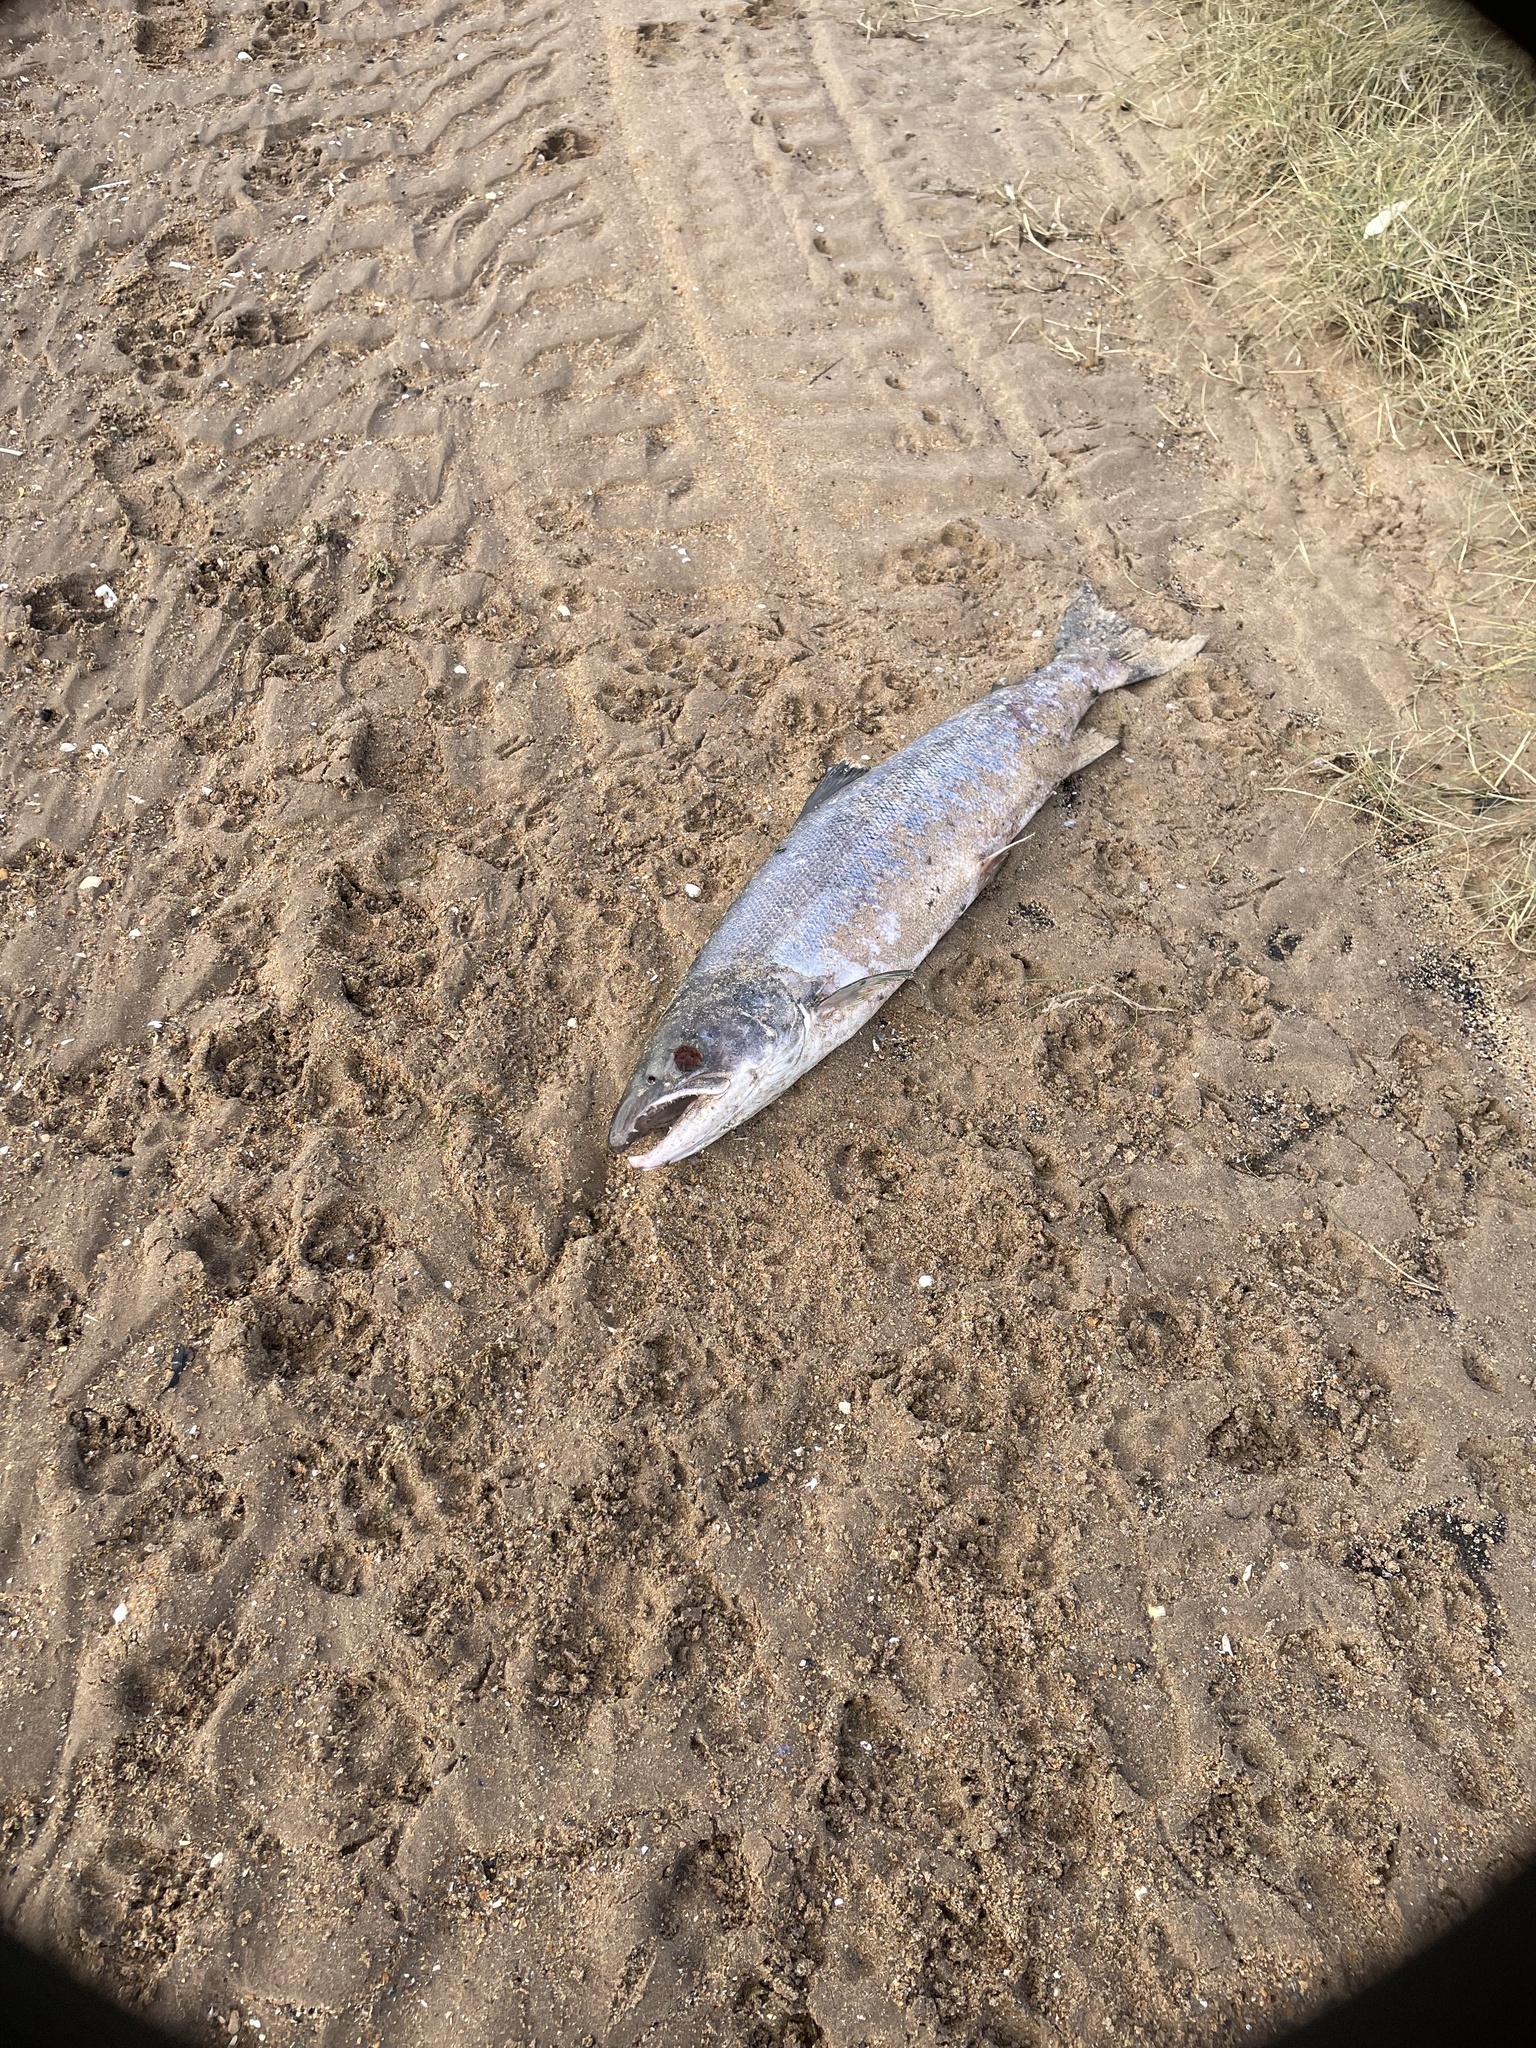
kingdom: Animalia
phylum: Chordata
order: Salmoniformes
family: Salmonidae
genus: Salmo
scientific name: Salmo salar
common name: Atlantic salmon
